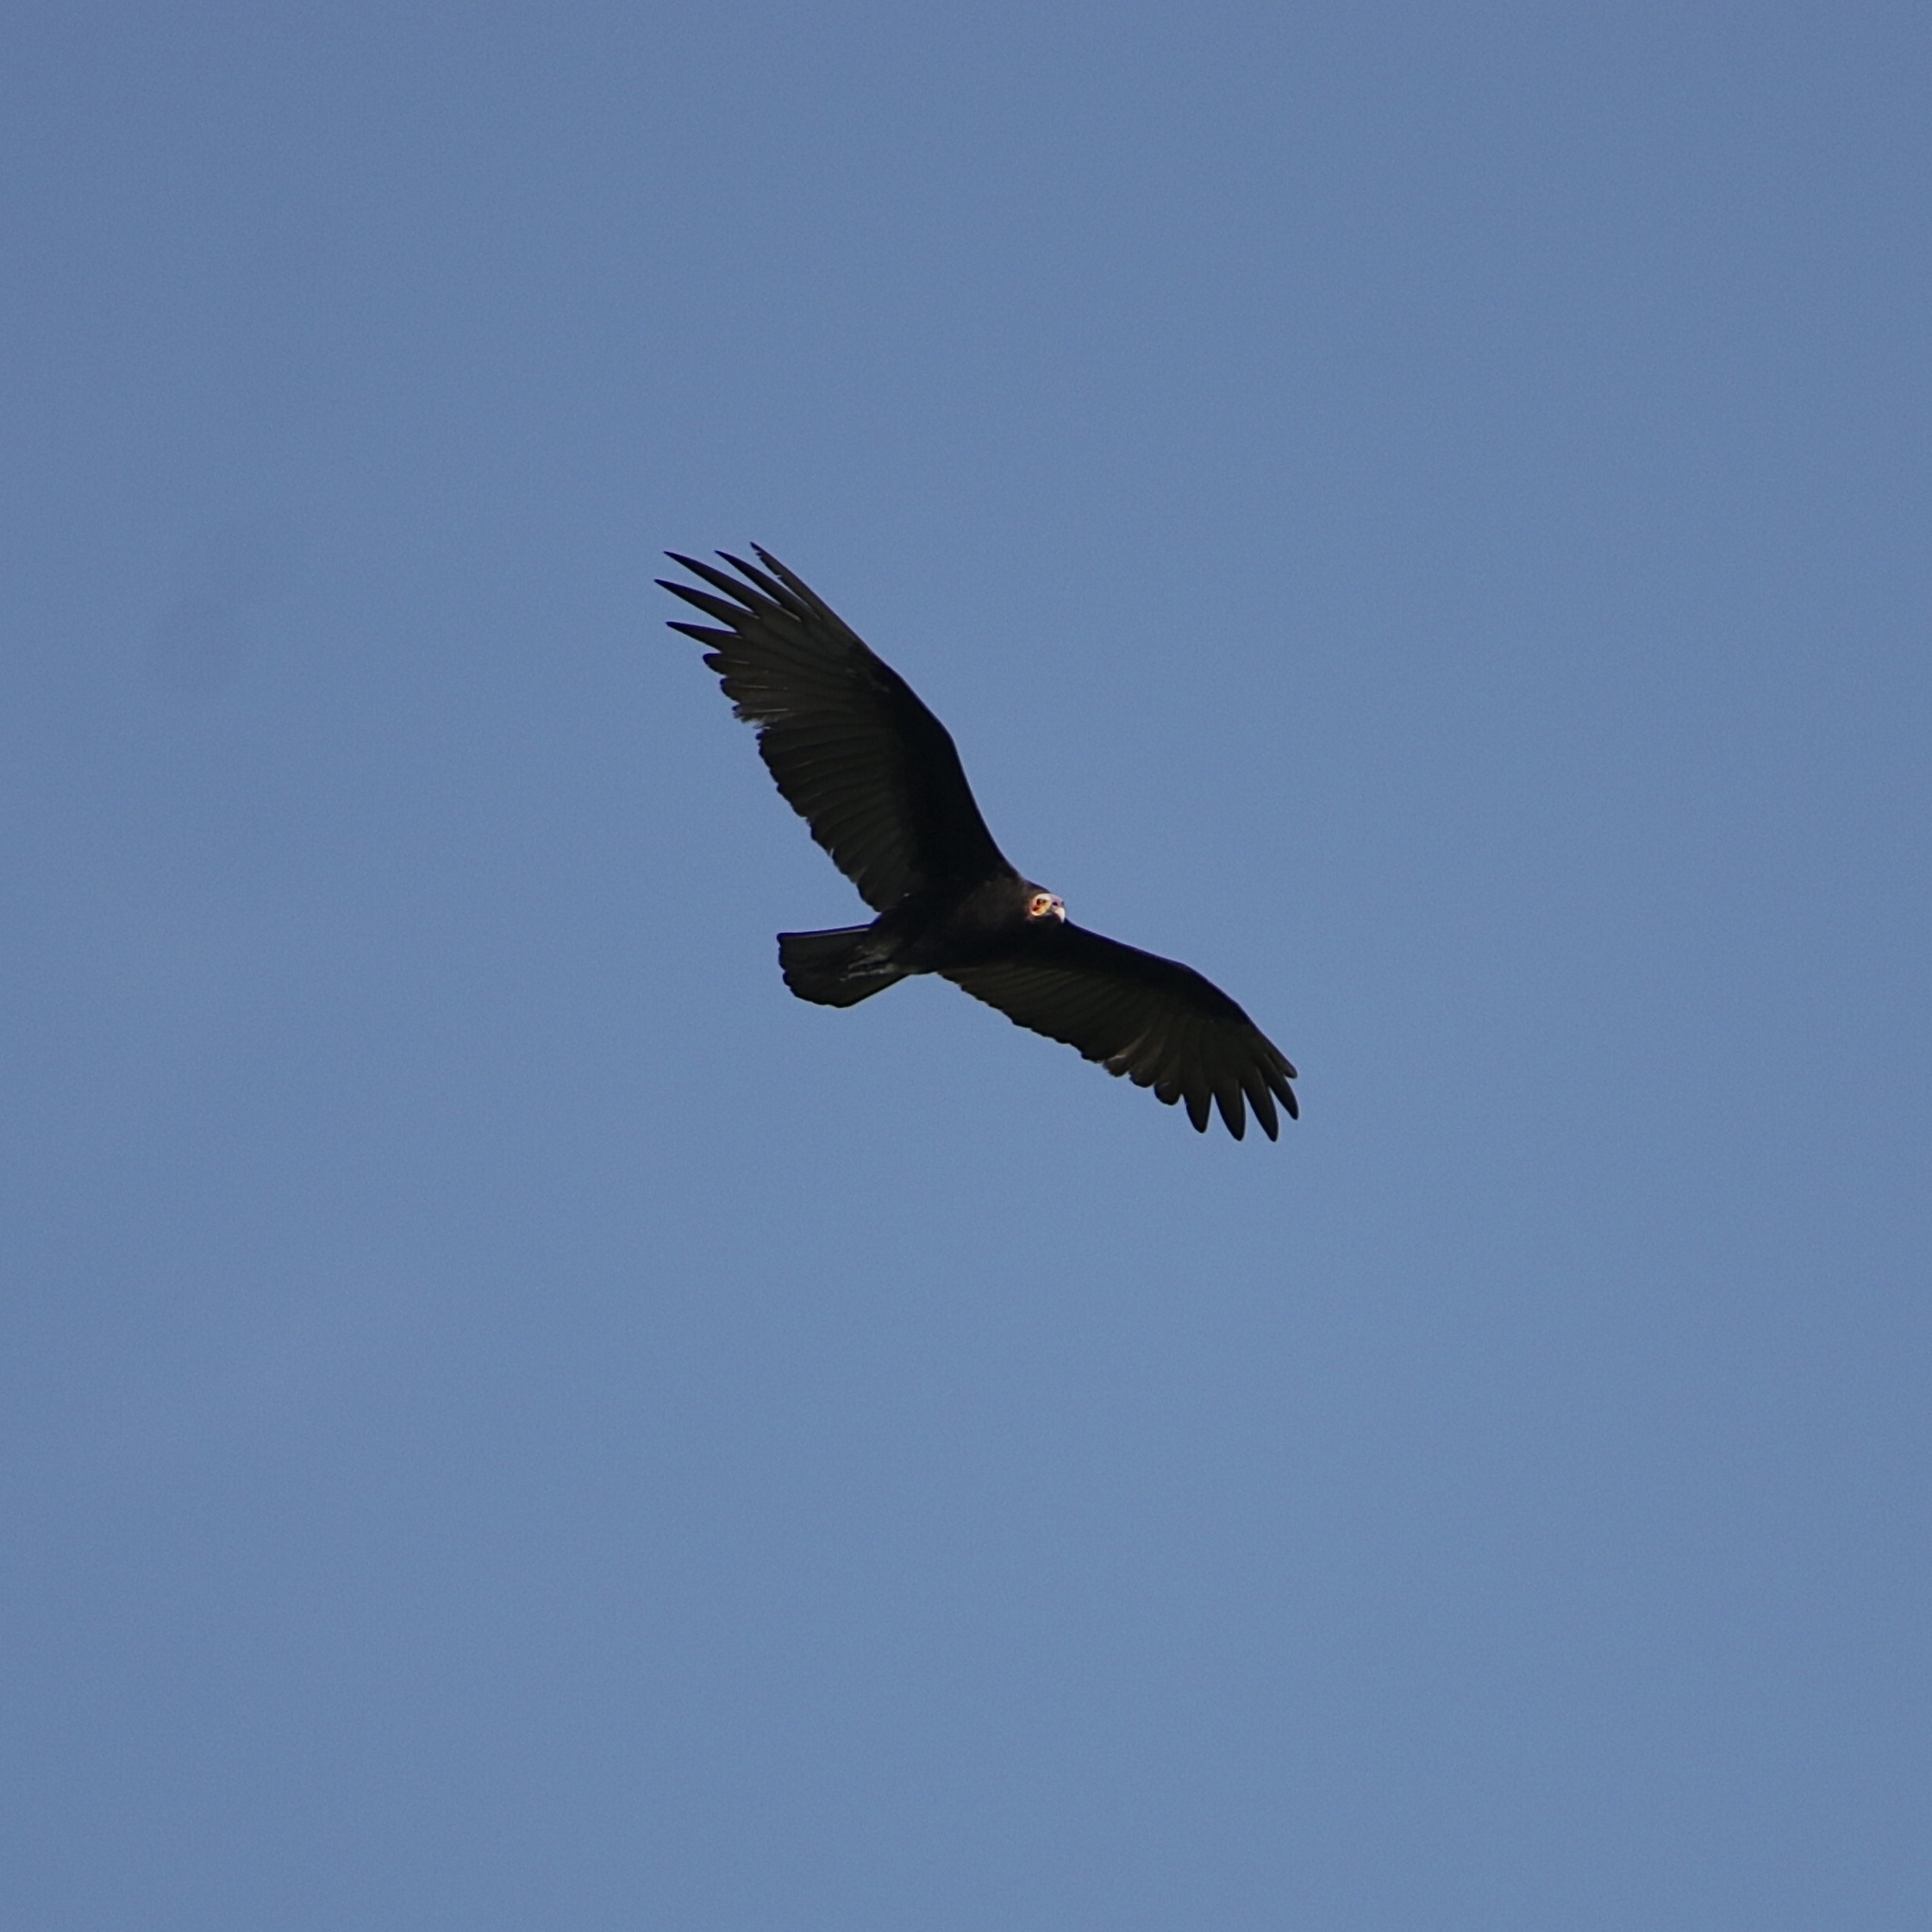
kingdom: Animalia
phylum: Chordata
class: Aves
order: Accipitriformes
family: Cathartidae
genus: Cathartes
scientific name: Cathartes burrovianus
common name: Lesser yellow-headed vulture
